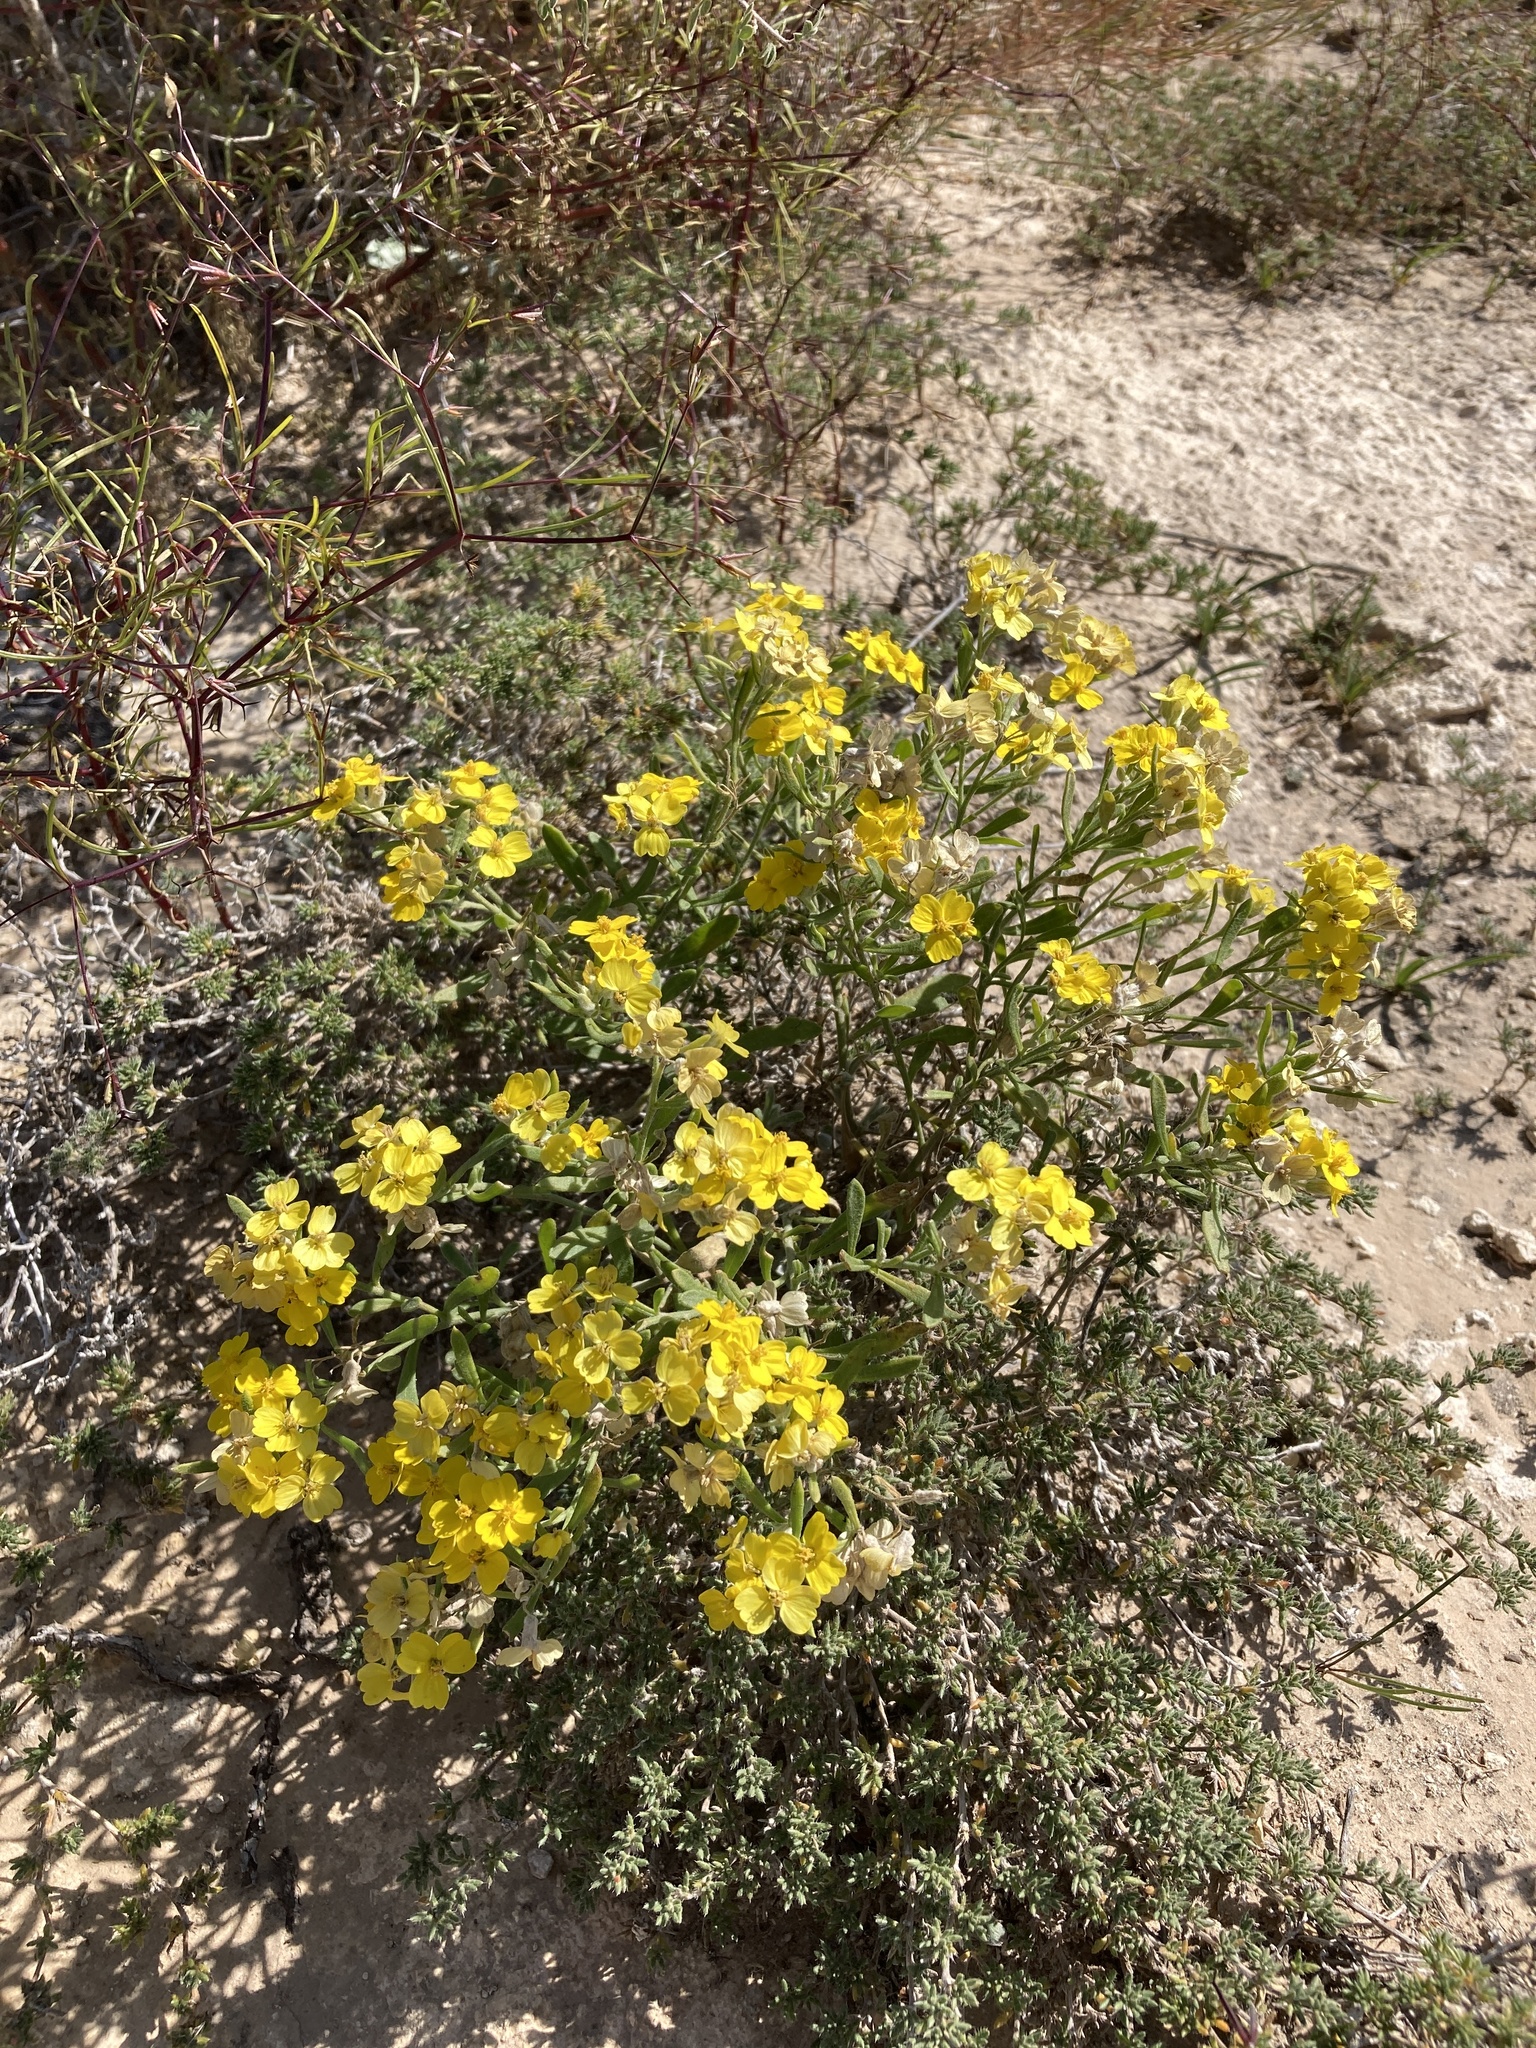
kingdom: Plantae
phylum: Tracheophyta
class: Magnoliopsida
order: Asterales
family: Asteraceae
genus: Psilostrophe
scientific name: Psilostrophe villosa
